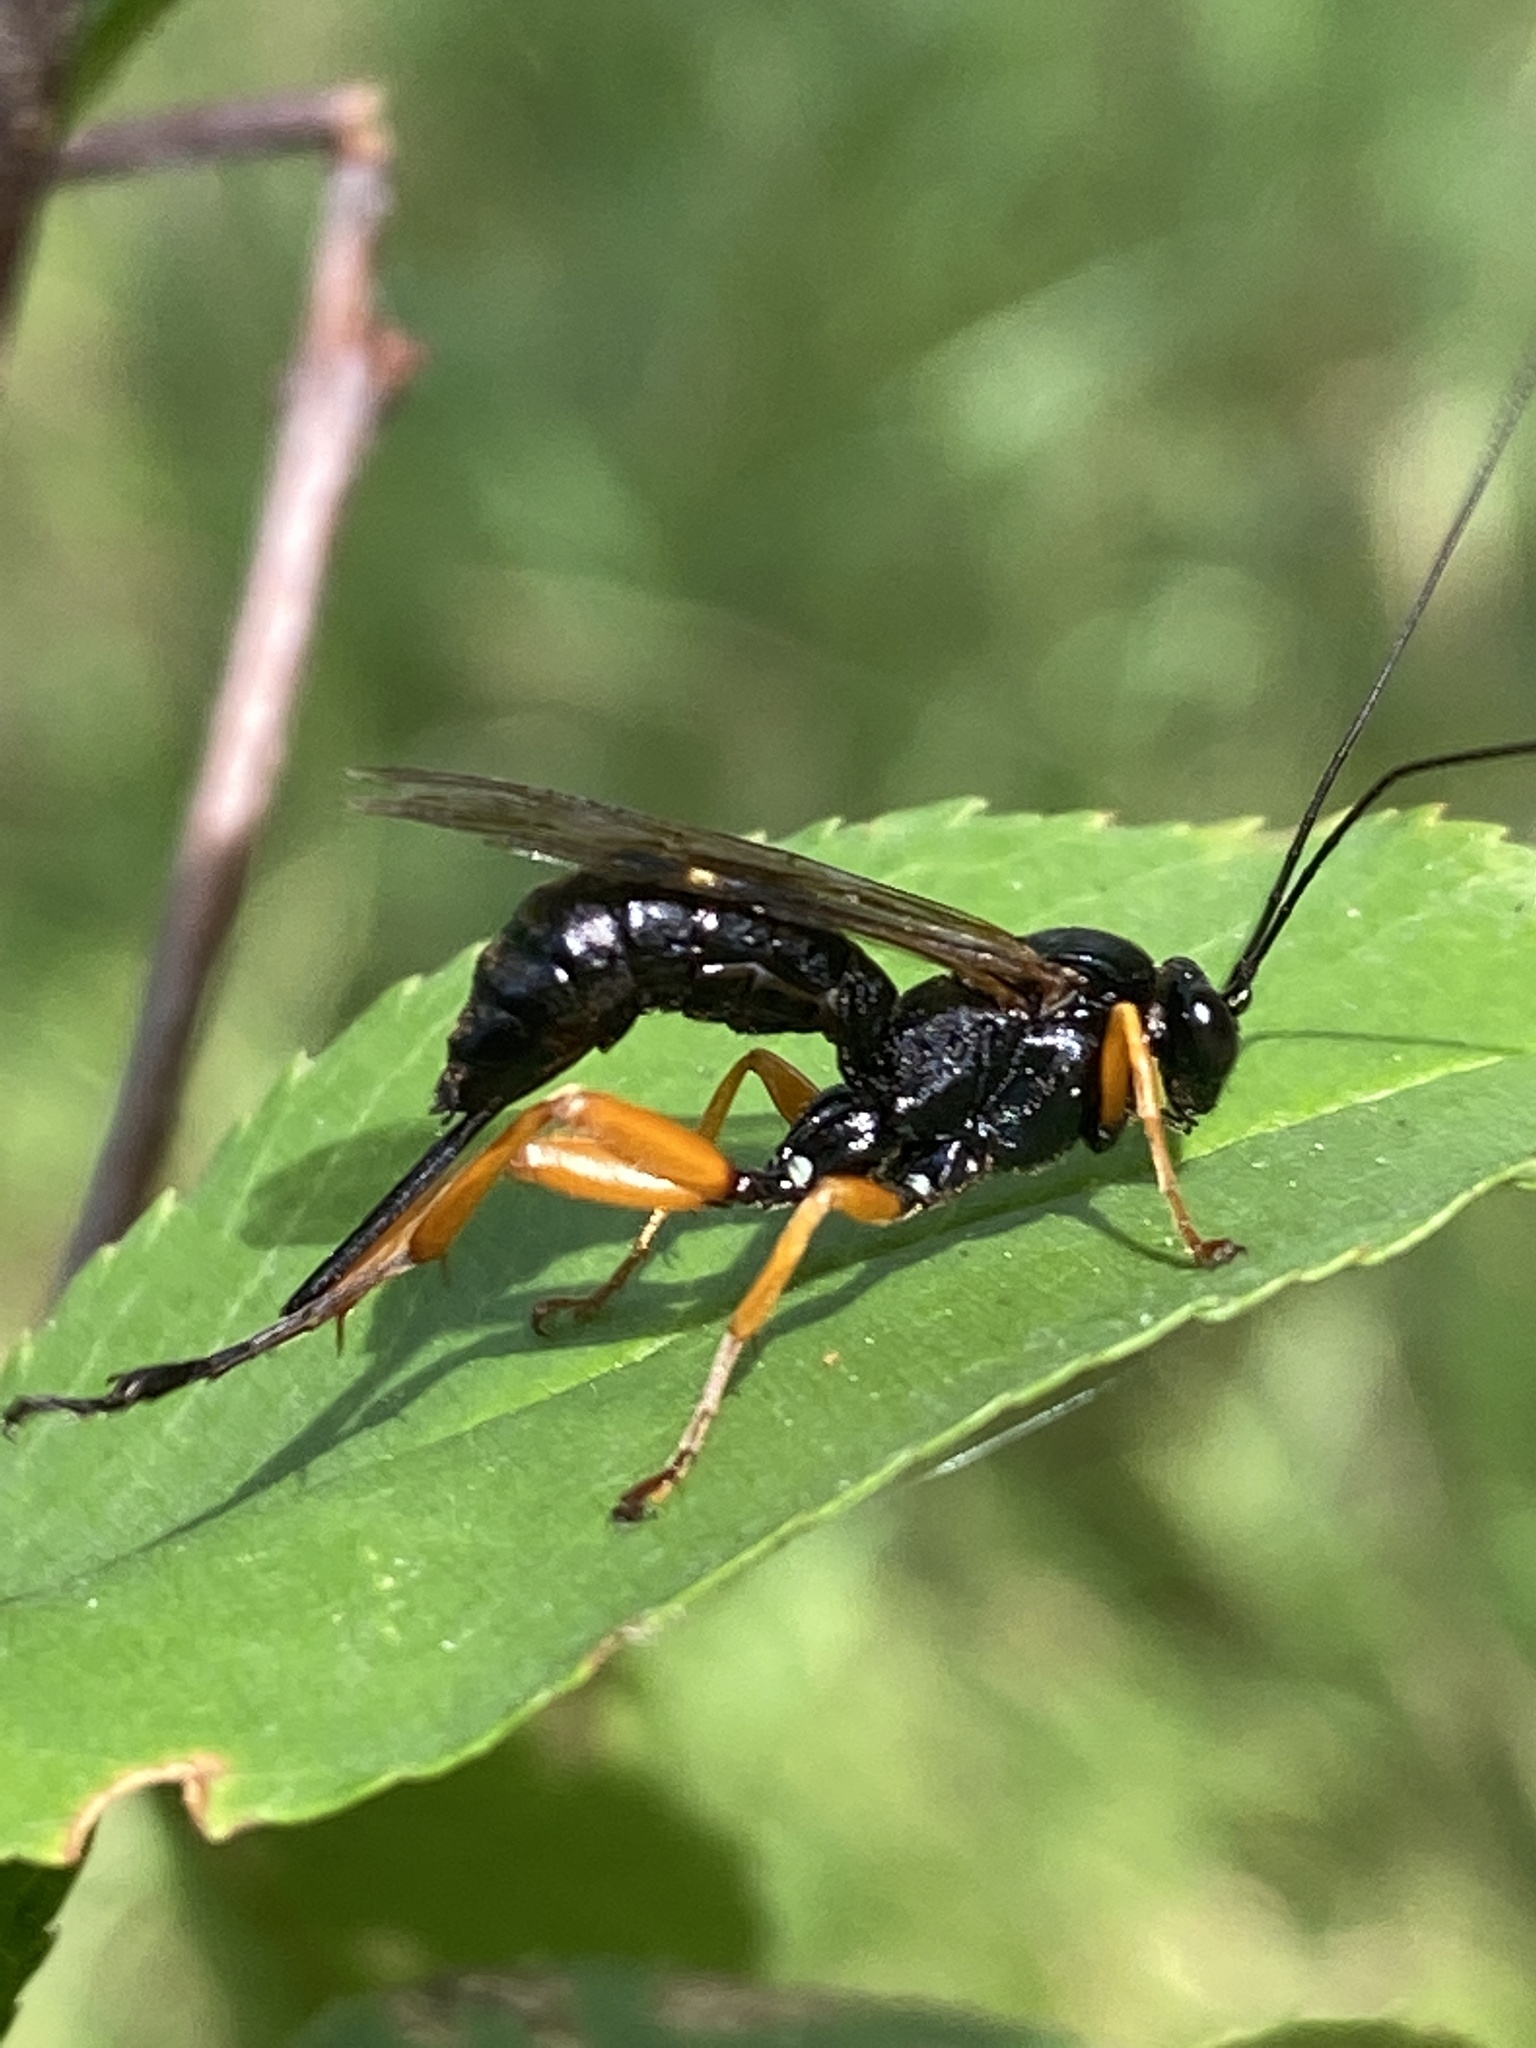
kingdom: Animalia
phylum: Arthropoda
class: Insecta
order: Hymenoptera
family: Ichneumonidae
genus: Pimpla
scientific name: Pimpla rufipes
